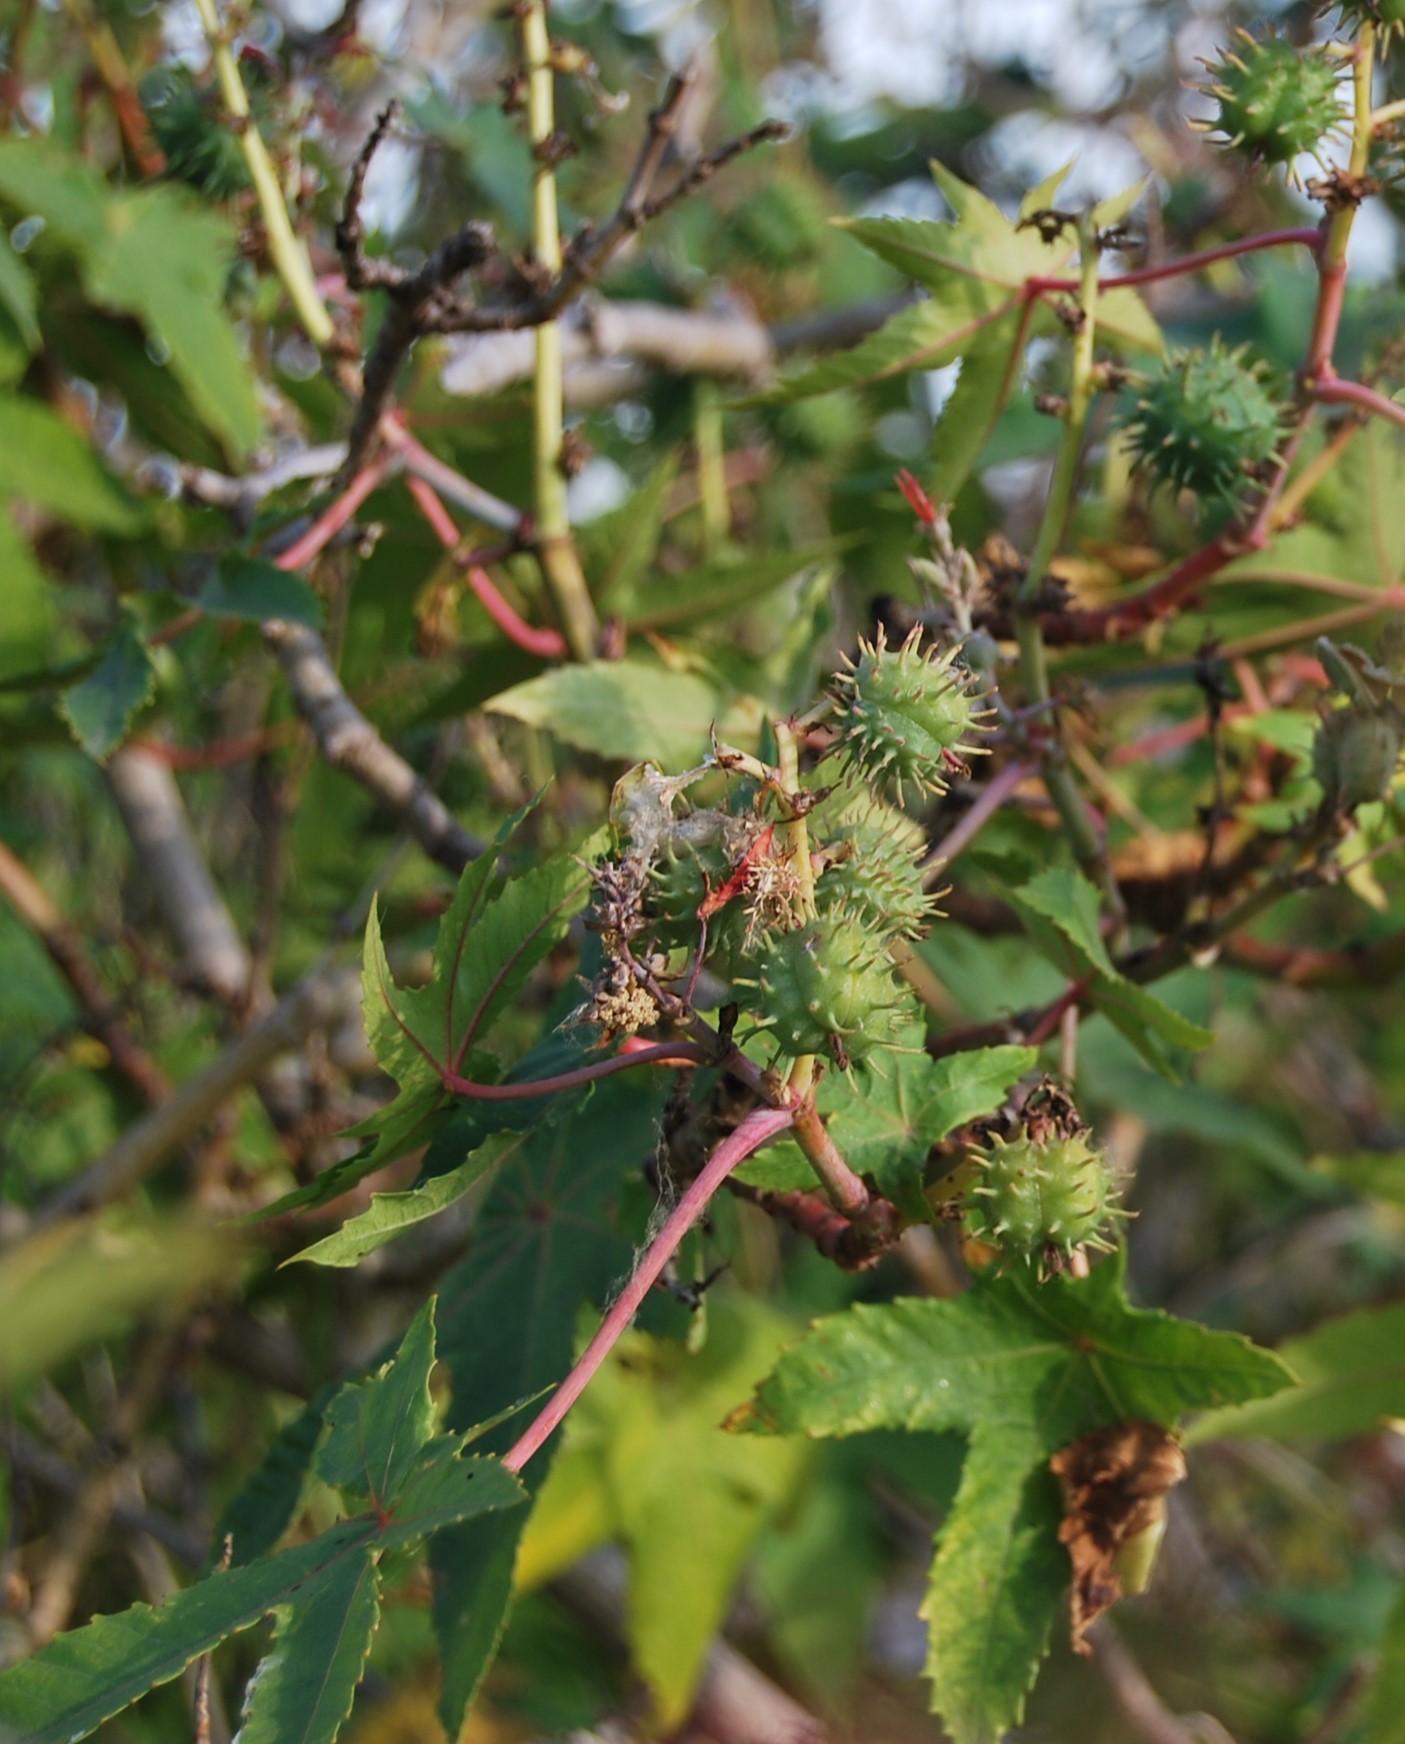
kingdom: Plantae
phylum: Tracheophyta
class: Magnoliopsida
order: Malpighiales
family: Euphorbiaceae
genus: Ricinus
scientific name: Ricinus communis
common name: Castor-oil-plant
